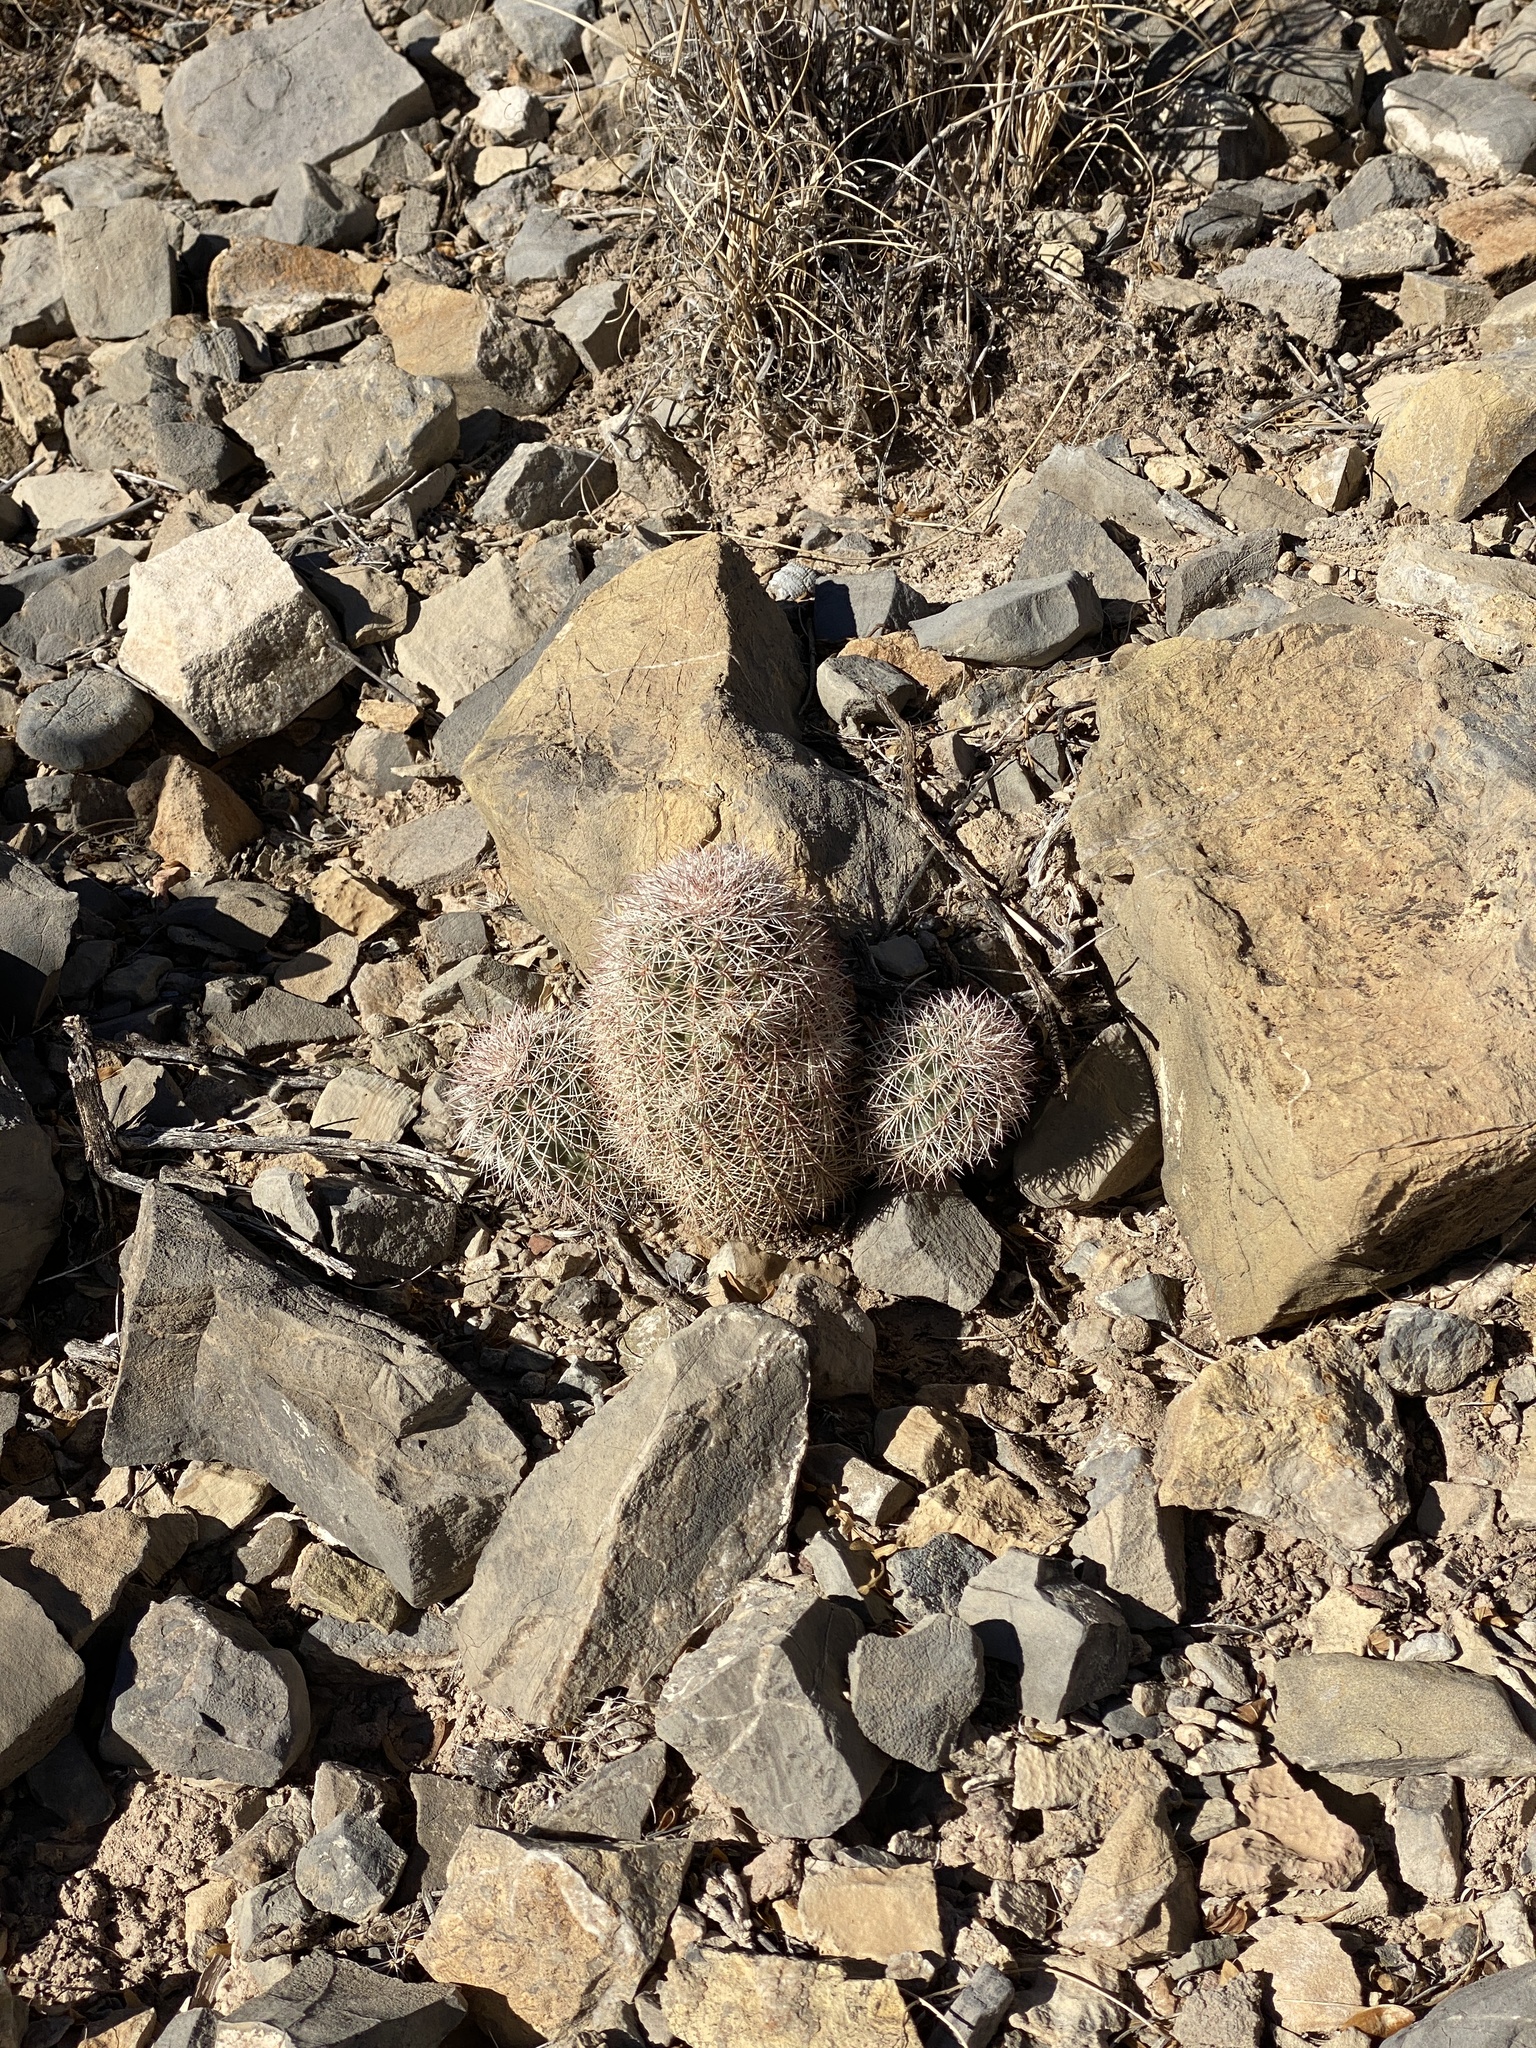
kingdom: Plantae
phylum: Tracheophyta
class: Magnoliopsida
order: Caryophyllales
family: Cactaceae
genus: Echinocereus
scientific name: Echinocereus dasyacanthus
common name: Spiny hedgehog cactus
